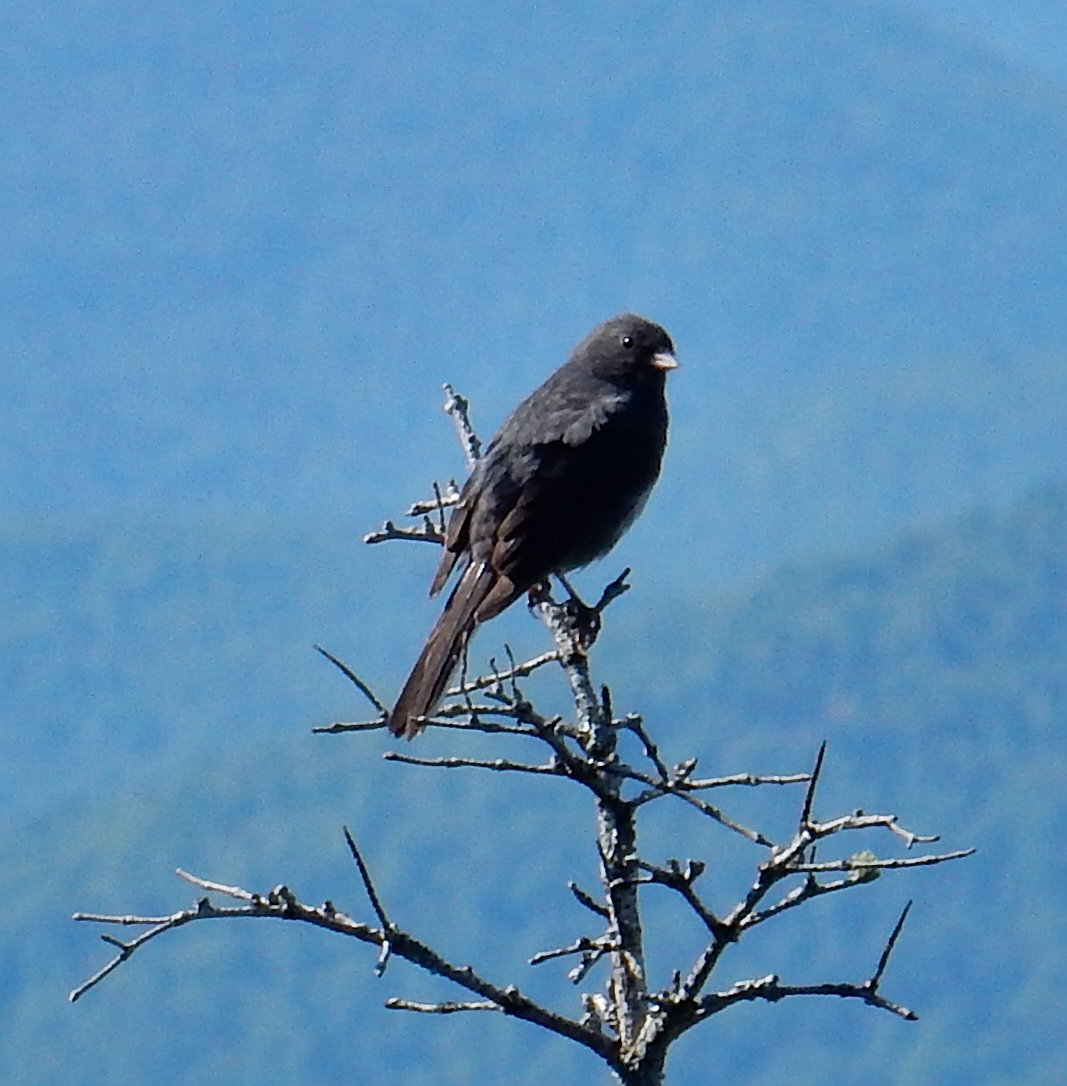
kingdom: Animalia
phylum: Chordata
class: Aves
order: Passeriformes
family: Passerellidae
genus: Junco
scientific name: Junco hyemalis
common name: Dark-eyed junco
